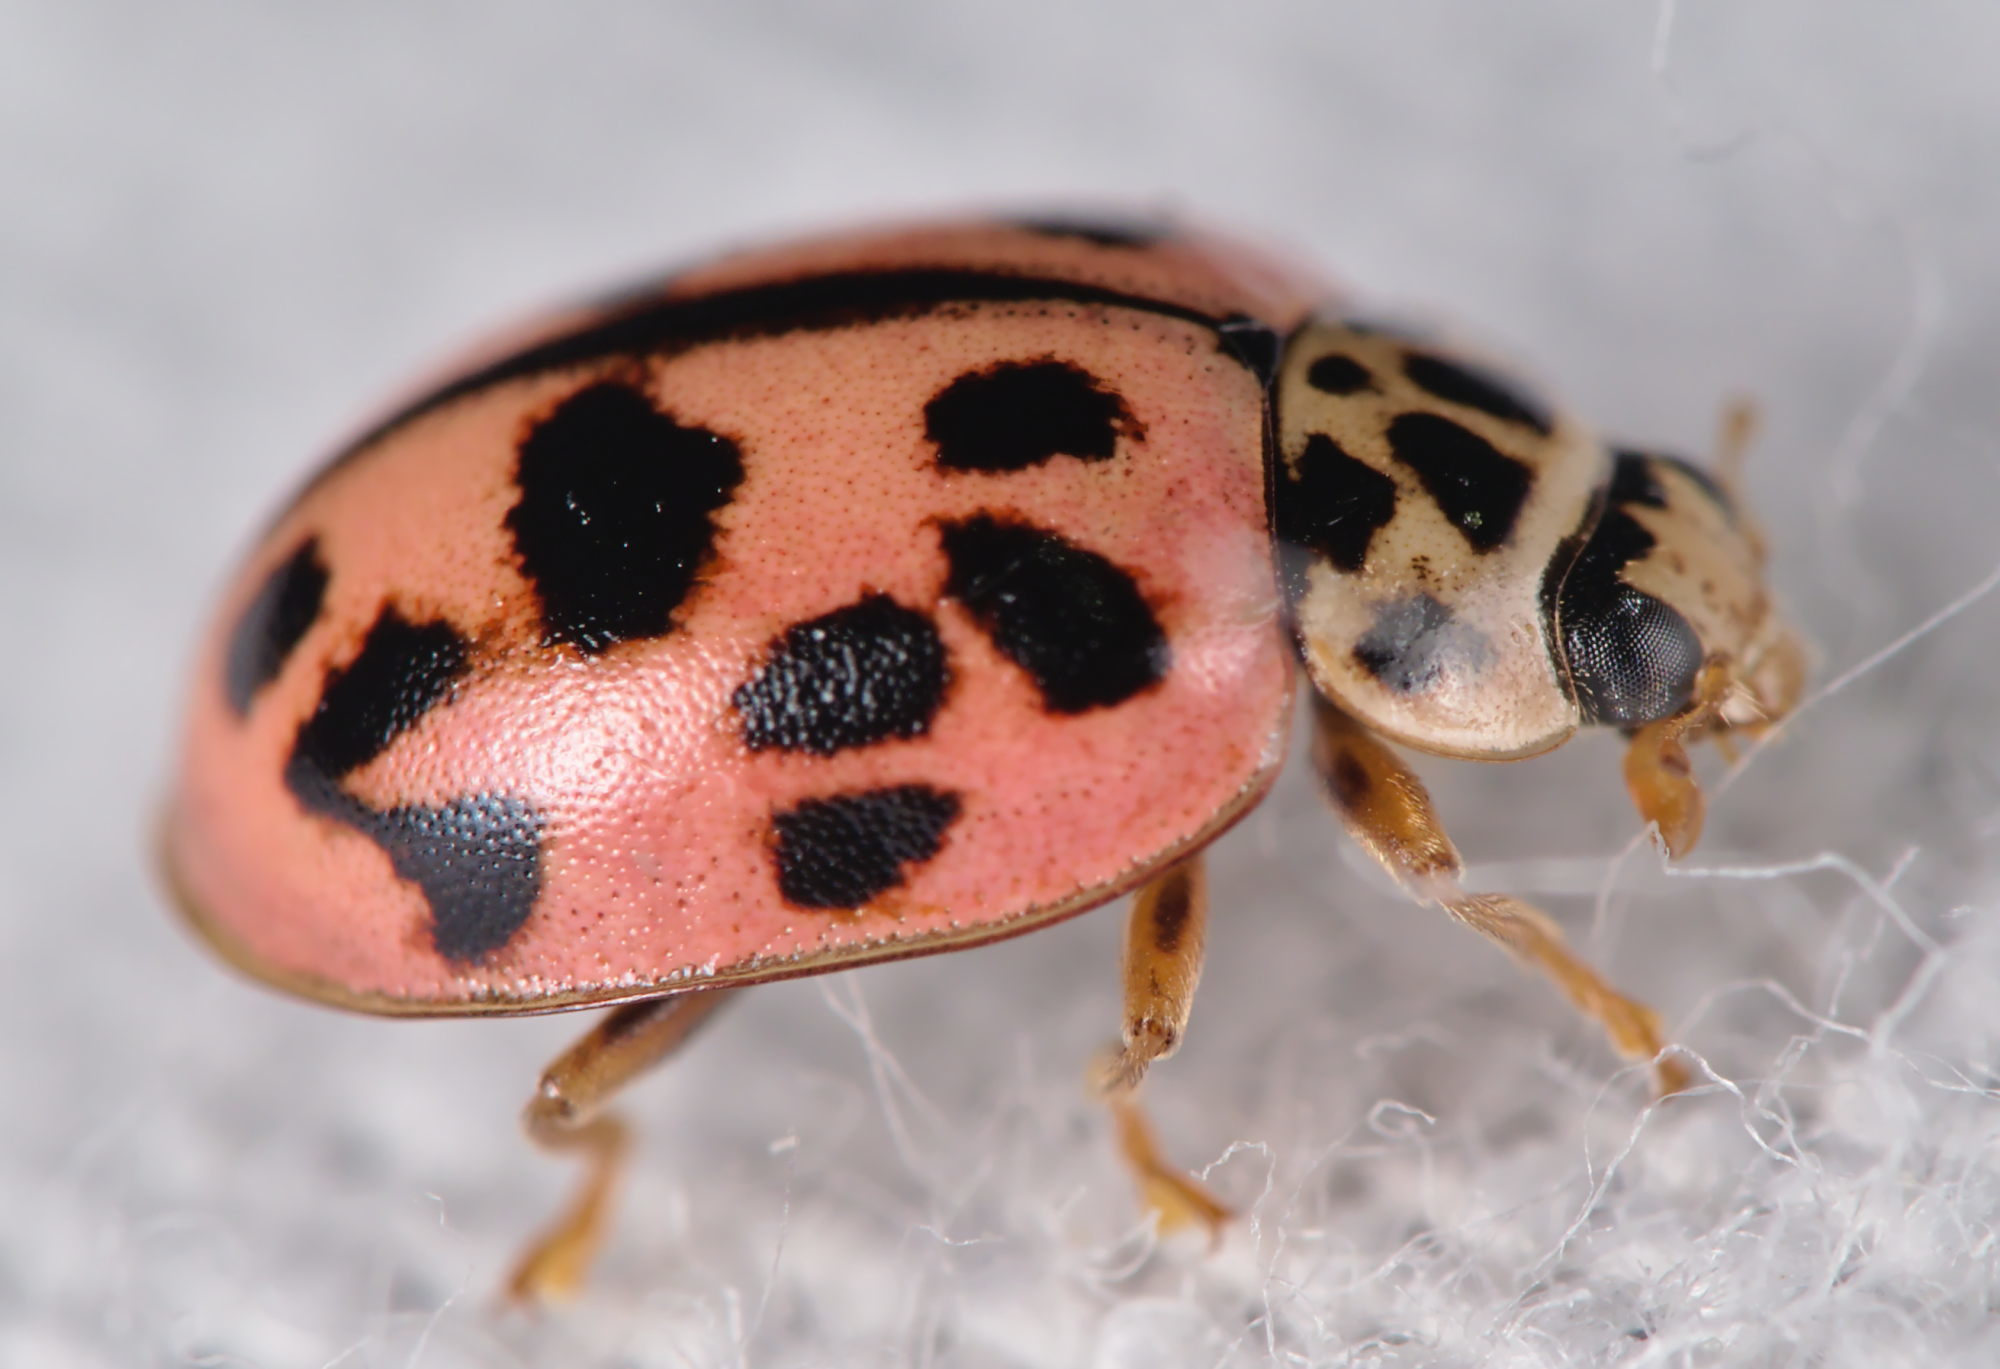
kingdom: Animalia
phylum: Arthropoda
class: Insecta
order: Coleoptera
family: Coccinellidae
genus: Oenopia
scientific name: Oenopia conglobata
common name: Ladybird beetle
